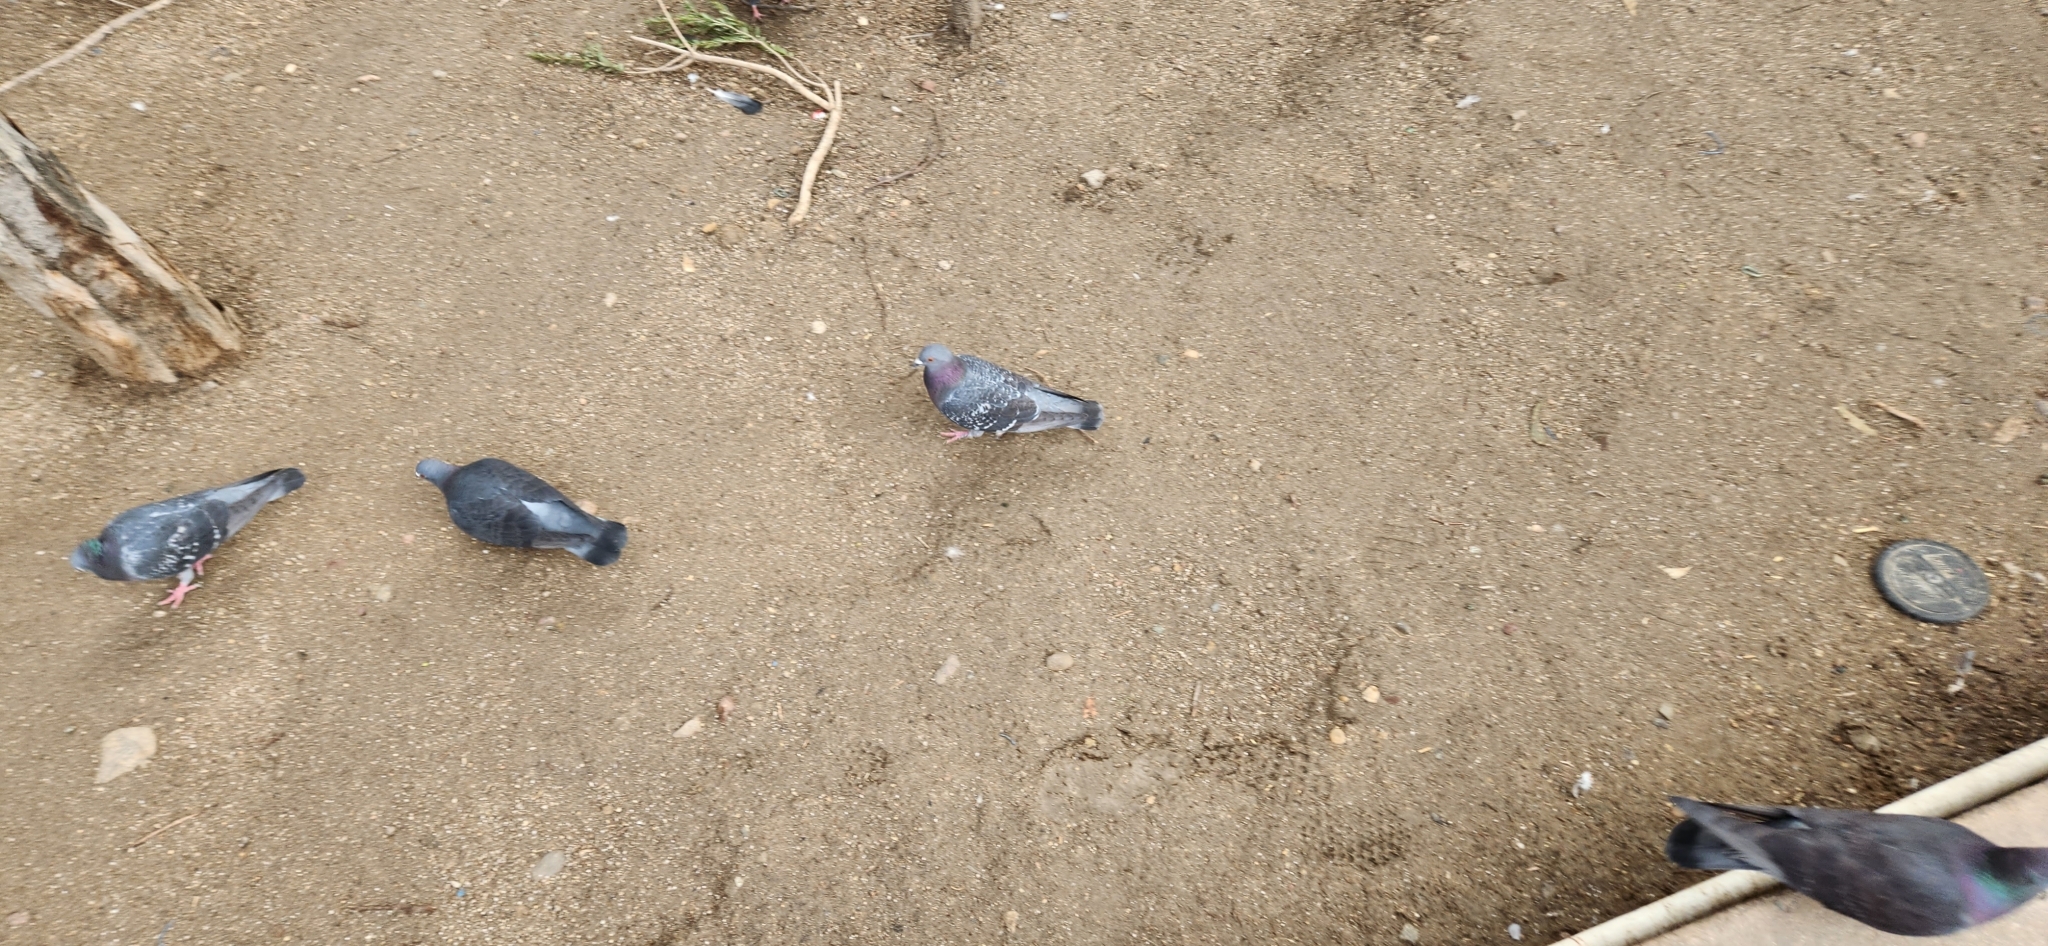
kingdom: Animalia
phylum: Chordata
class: Aves
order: Columbiformes
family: Columbidae
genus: Columba
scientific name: Columba livia
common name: Rock pigeon
